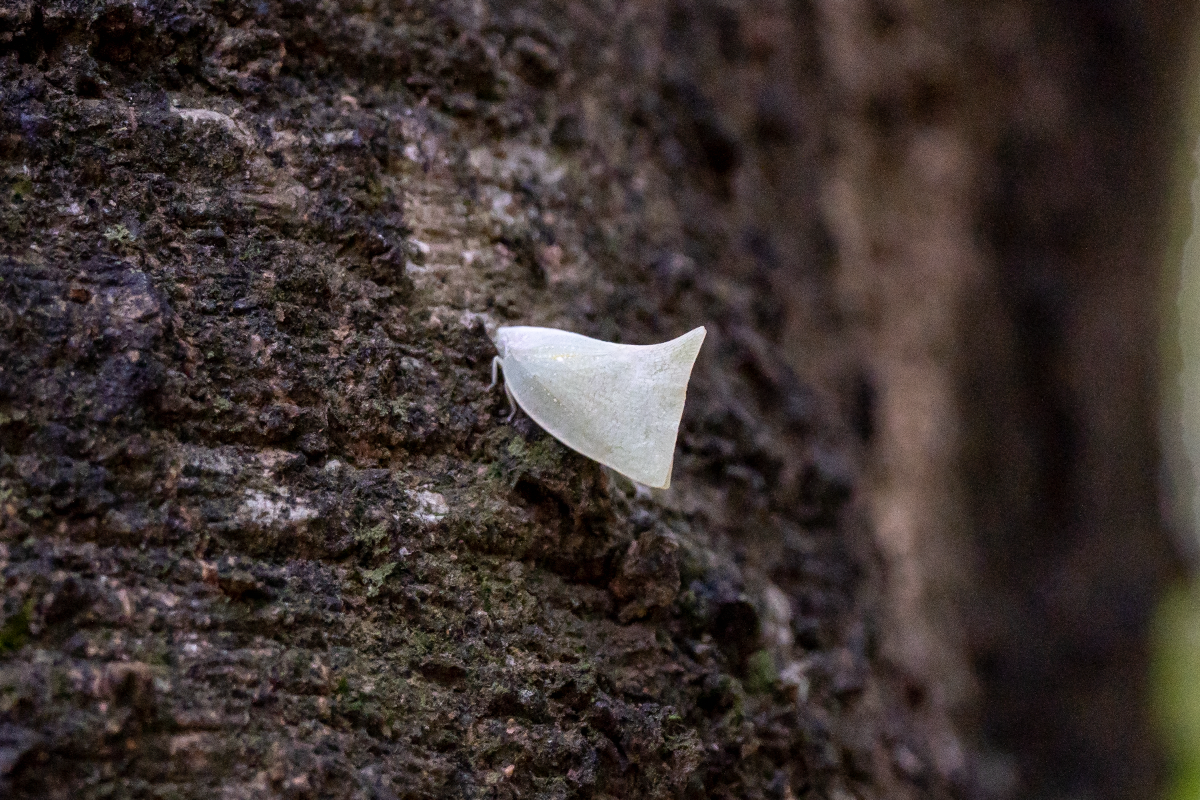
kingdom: Animalia
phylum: Arthropoda
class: Insecta
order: Hemiptera
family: Flatidae
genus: Lawana
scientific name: Lawana imitata
